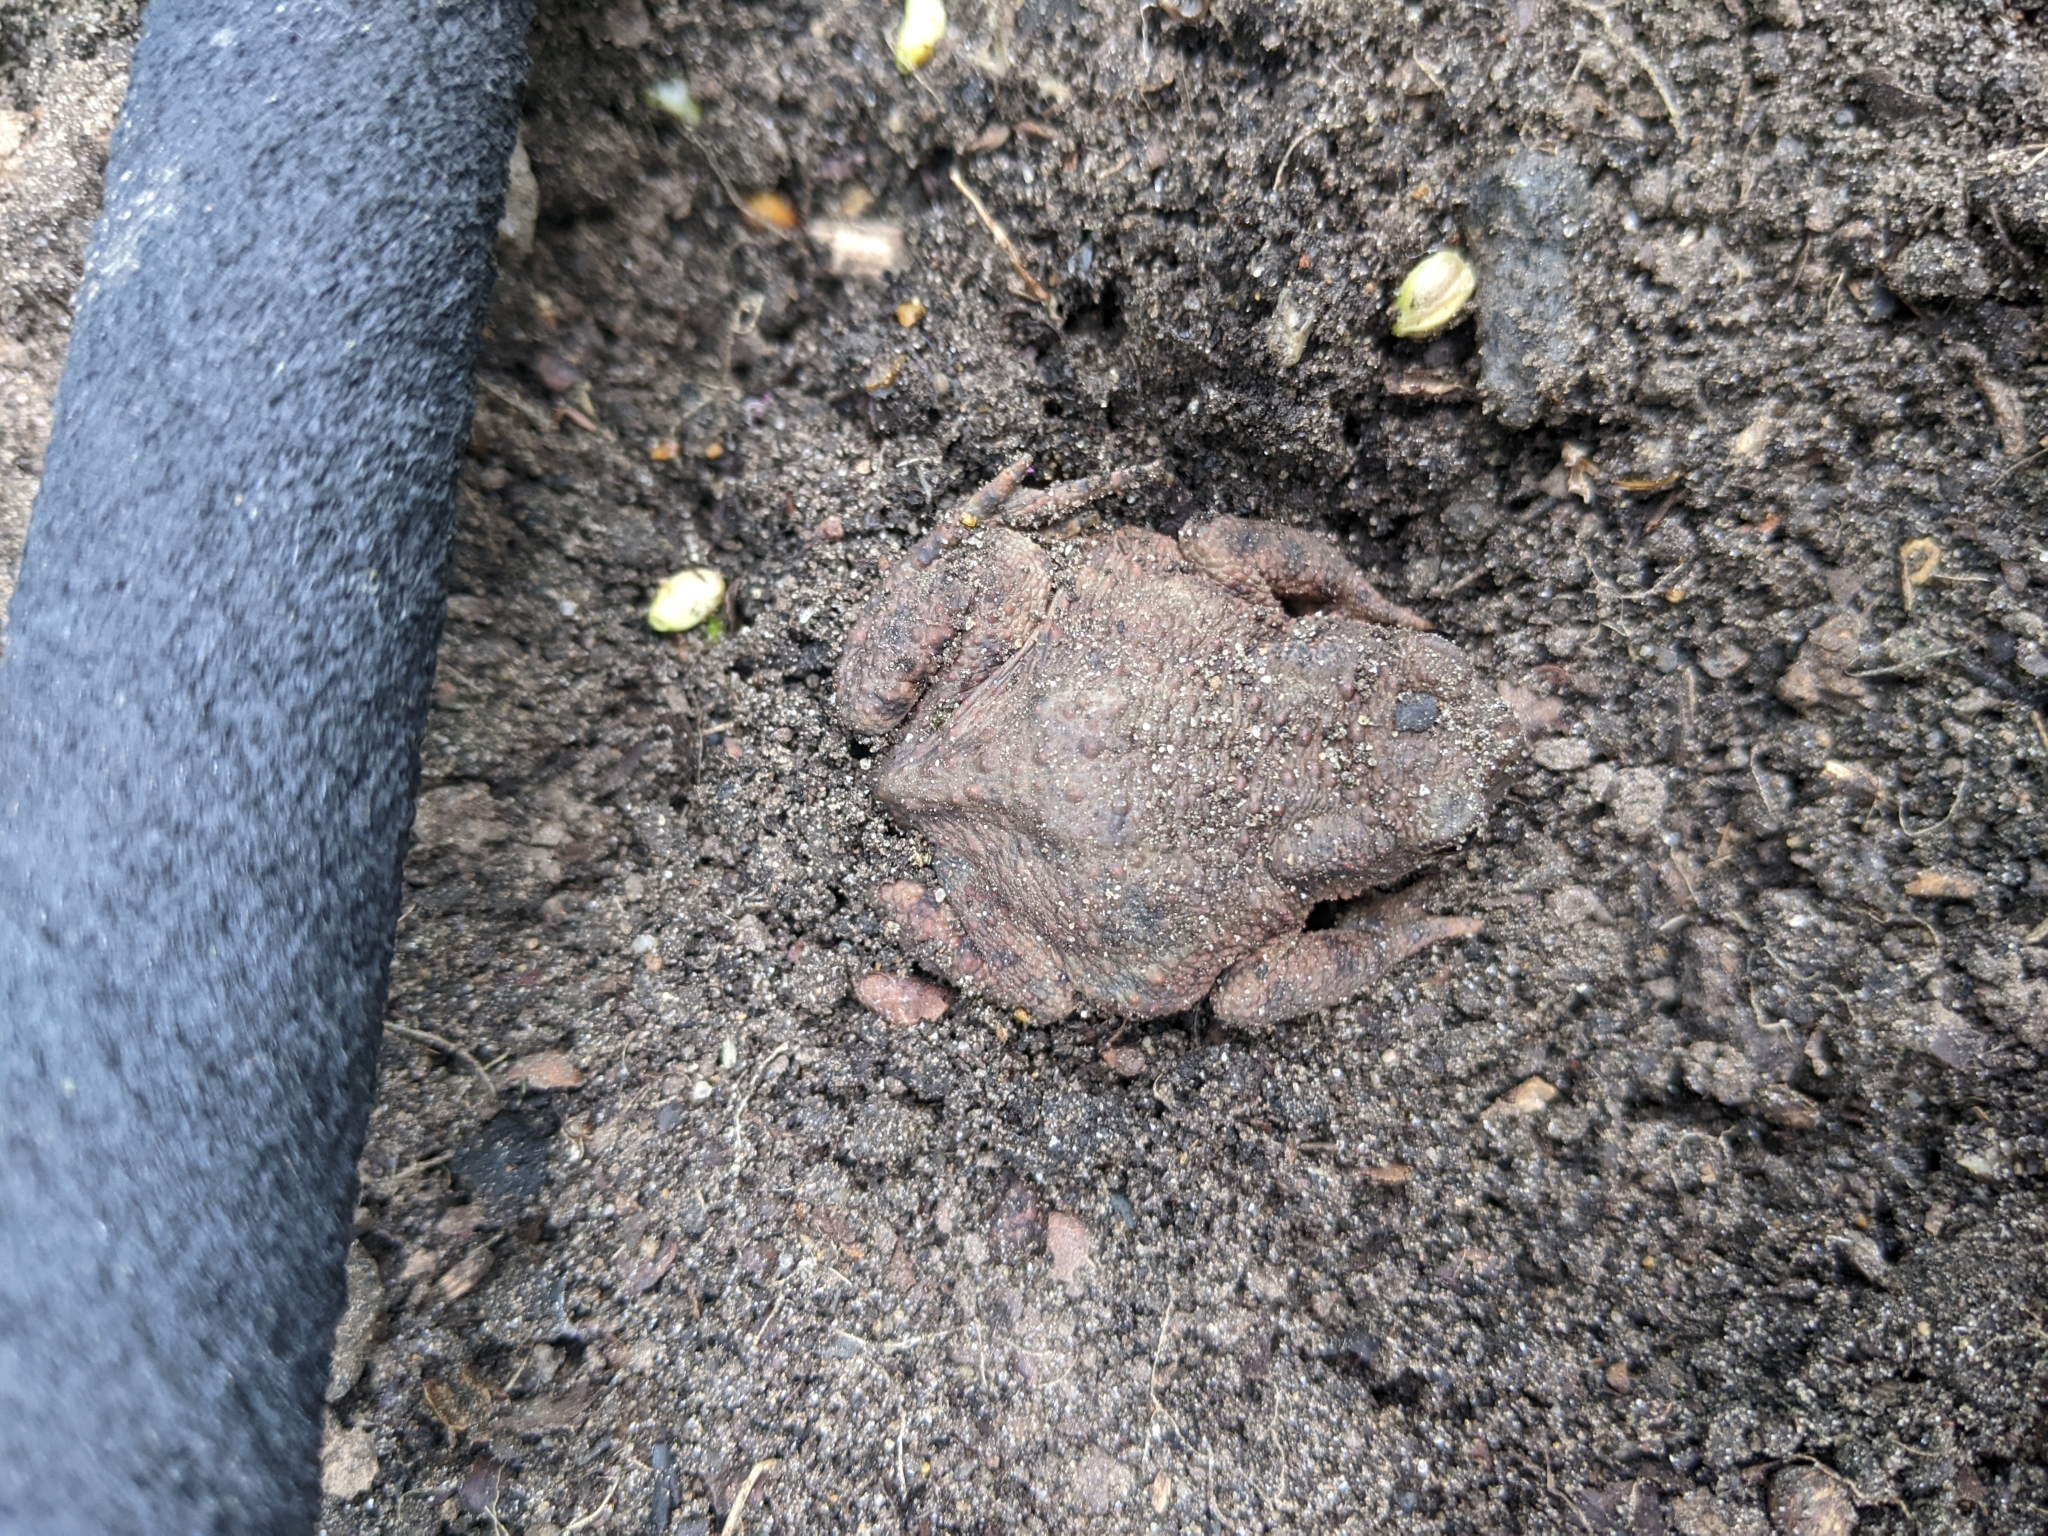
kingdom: Animalia
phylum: Chordata
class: Amphibia
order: Anura
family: Bufonidae
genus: Bufo
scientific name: Bufo bufo
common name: Common toad
